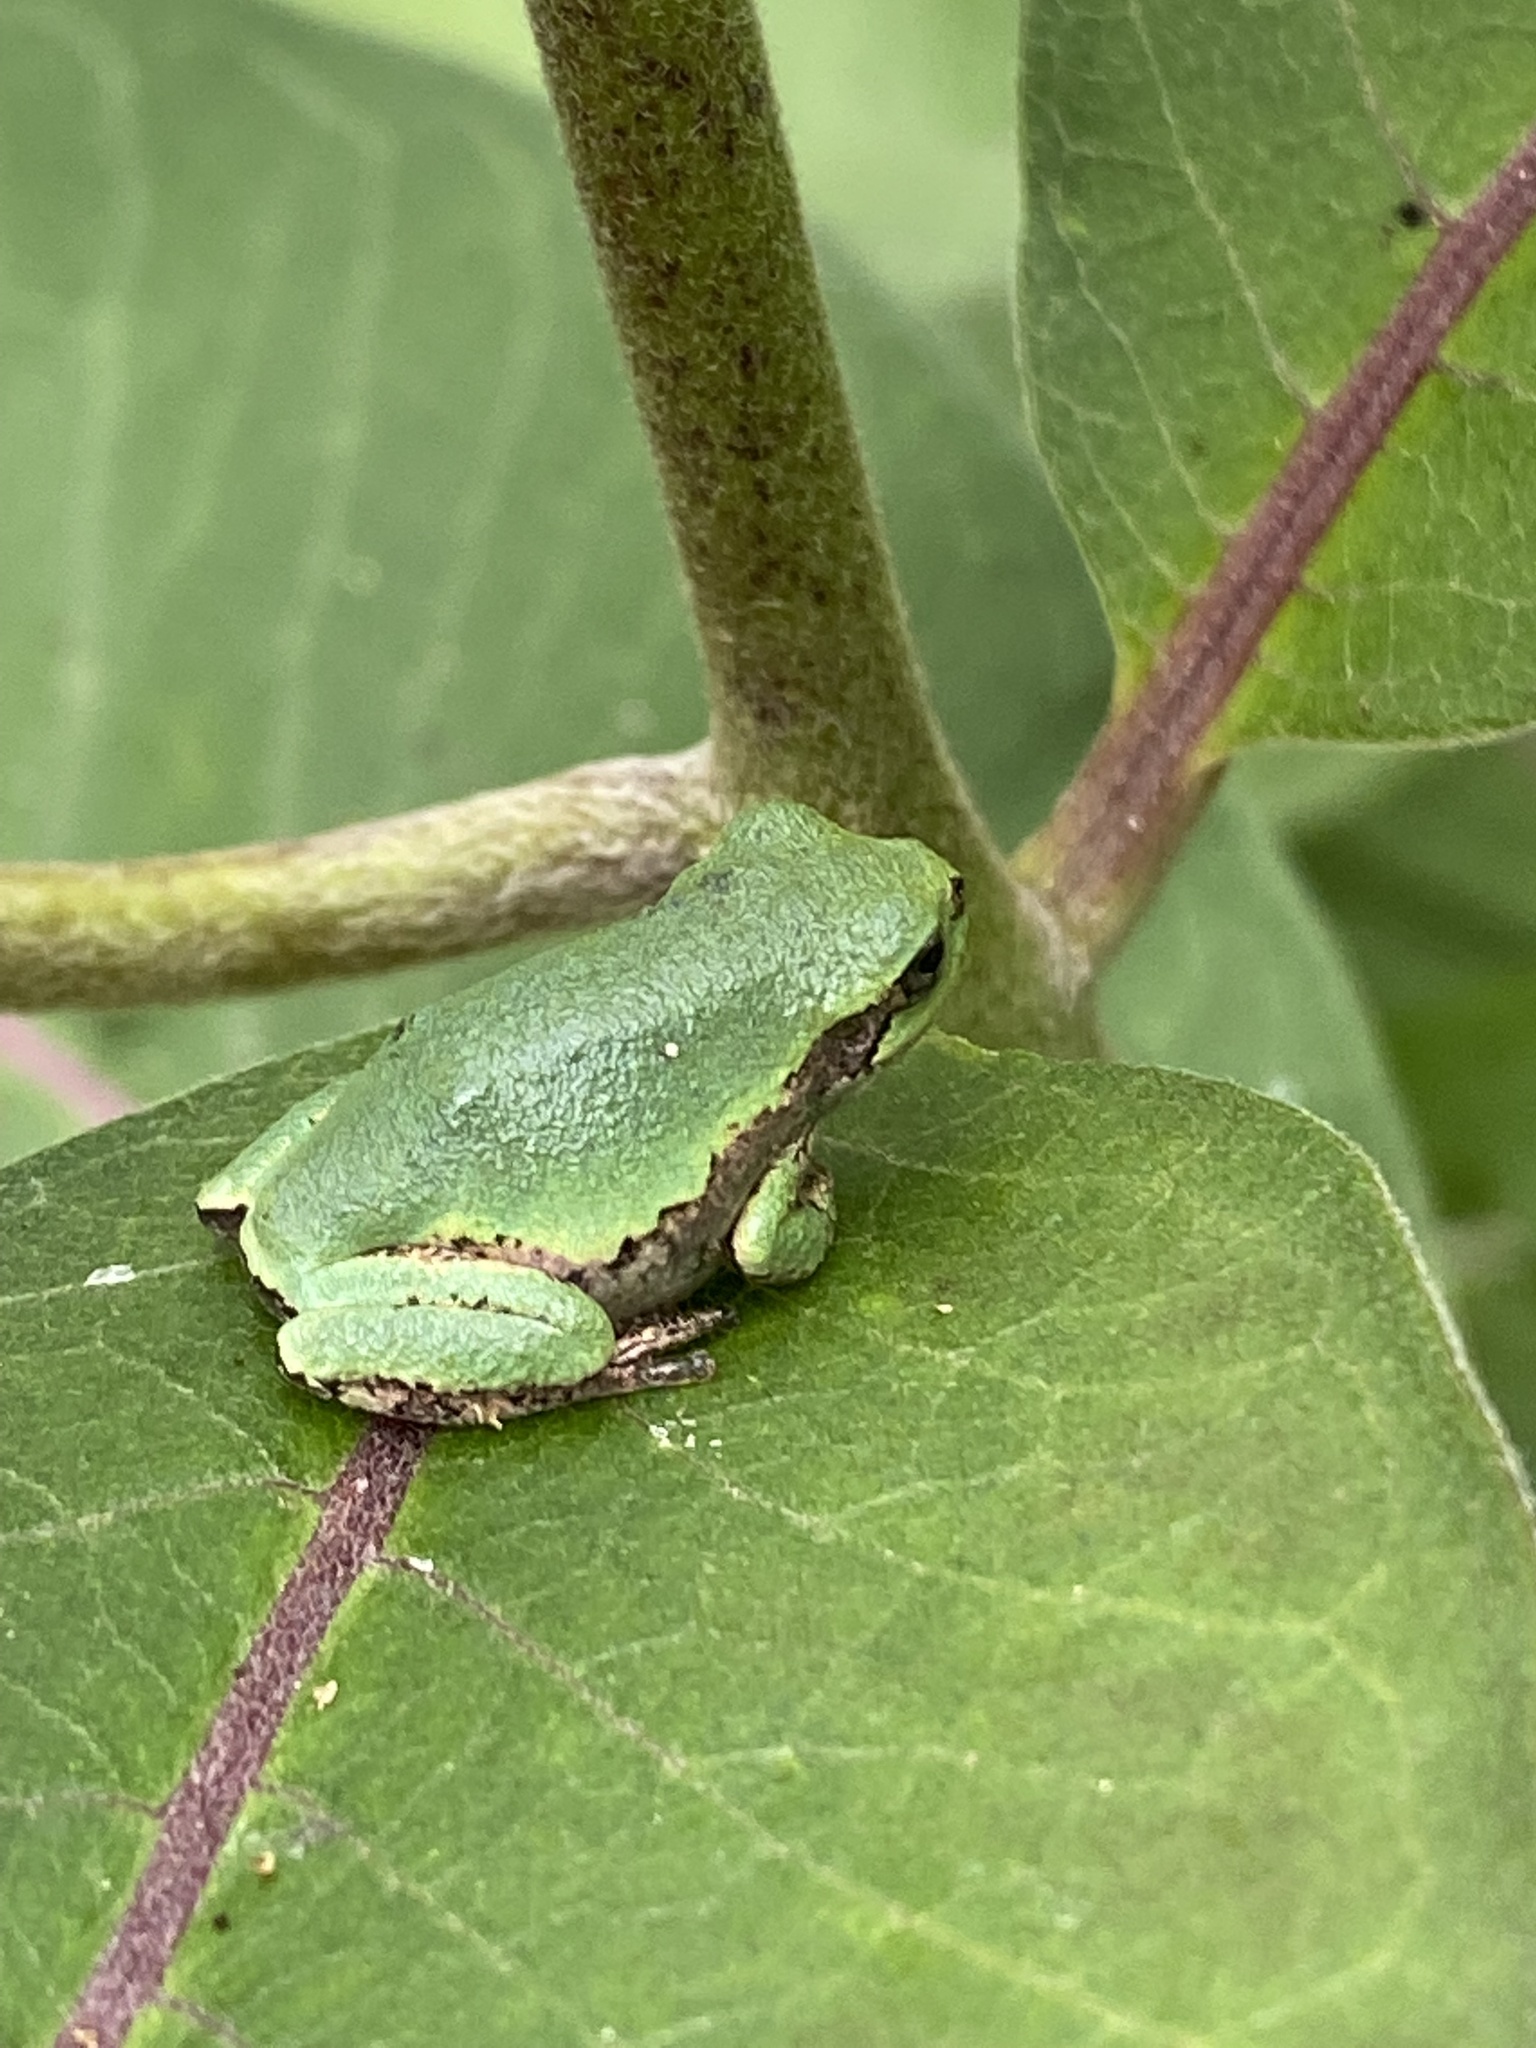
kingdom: Animalia
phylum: Chordata
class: Amphibia
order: Anura
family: Hylidae
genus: Hyla
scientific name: Hyla
